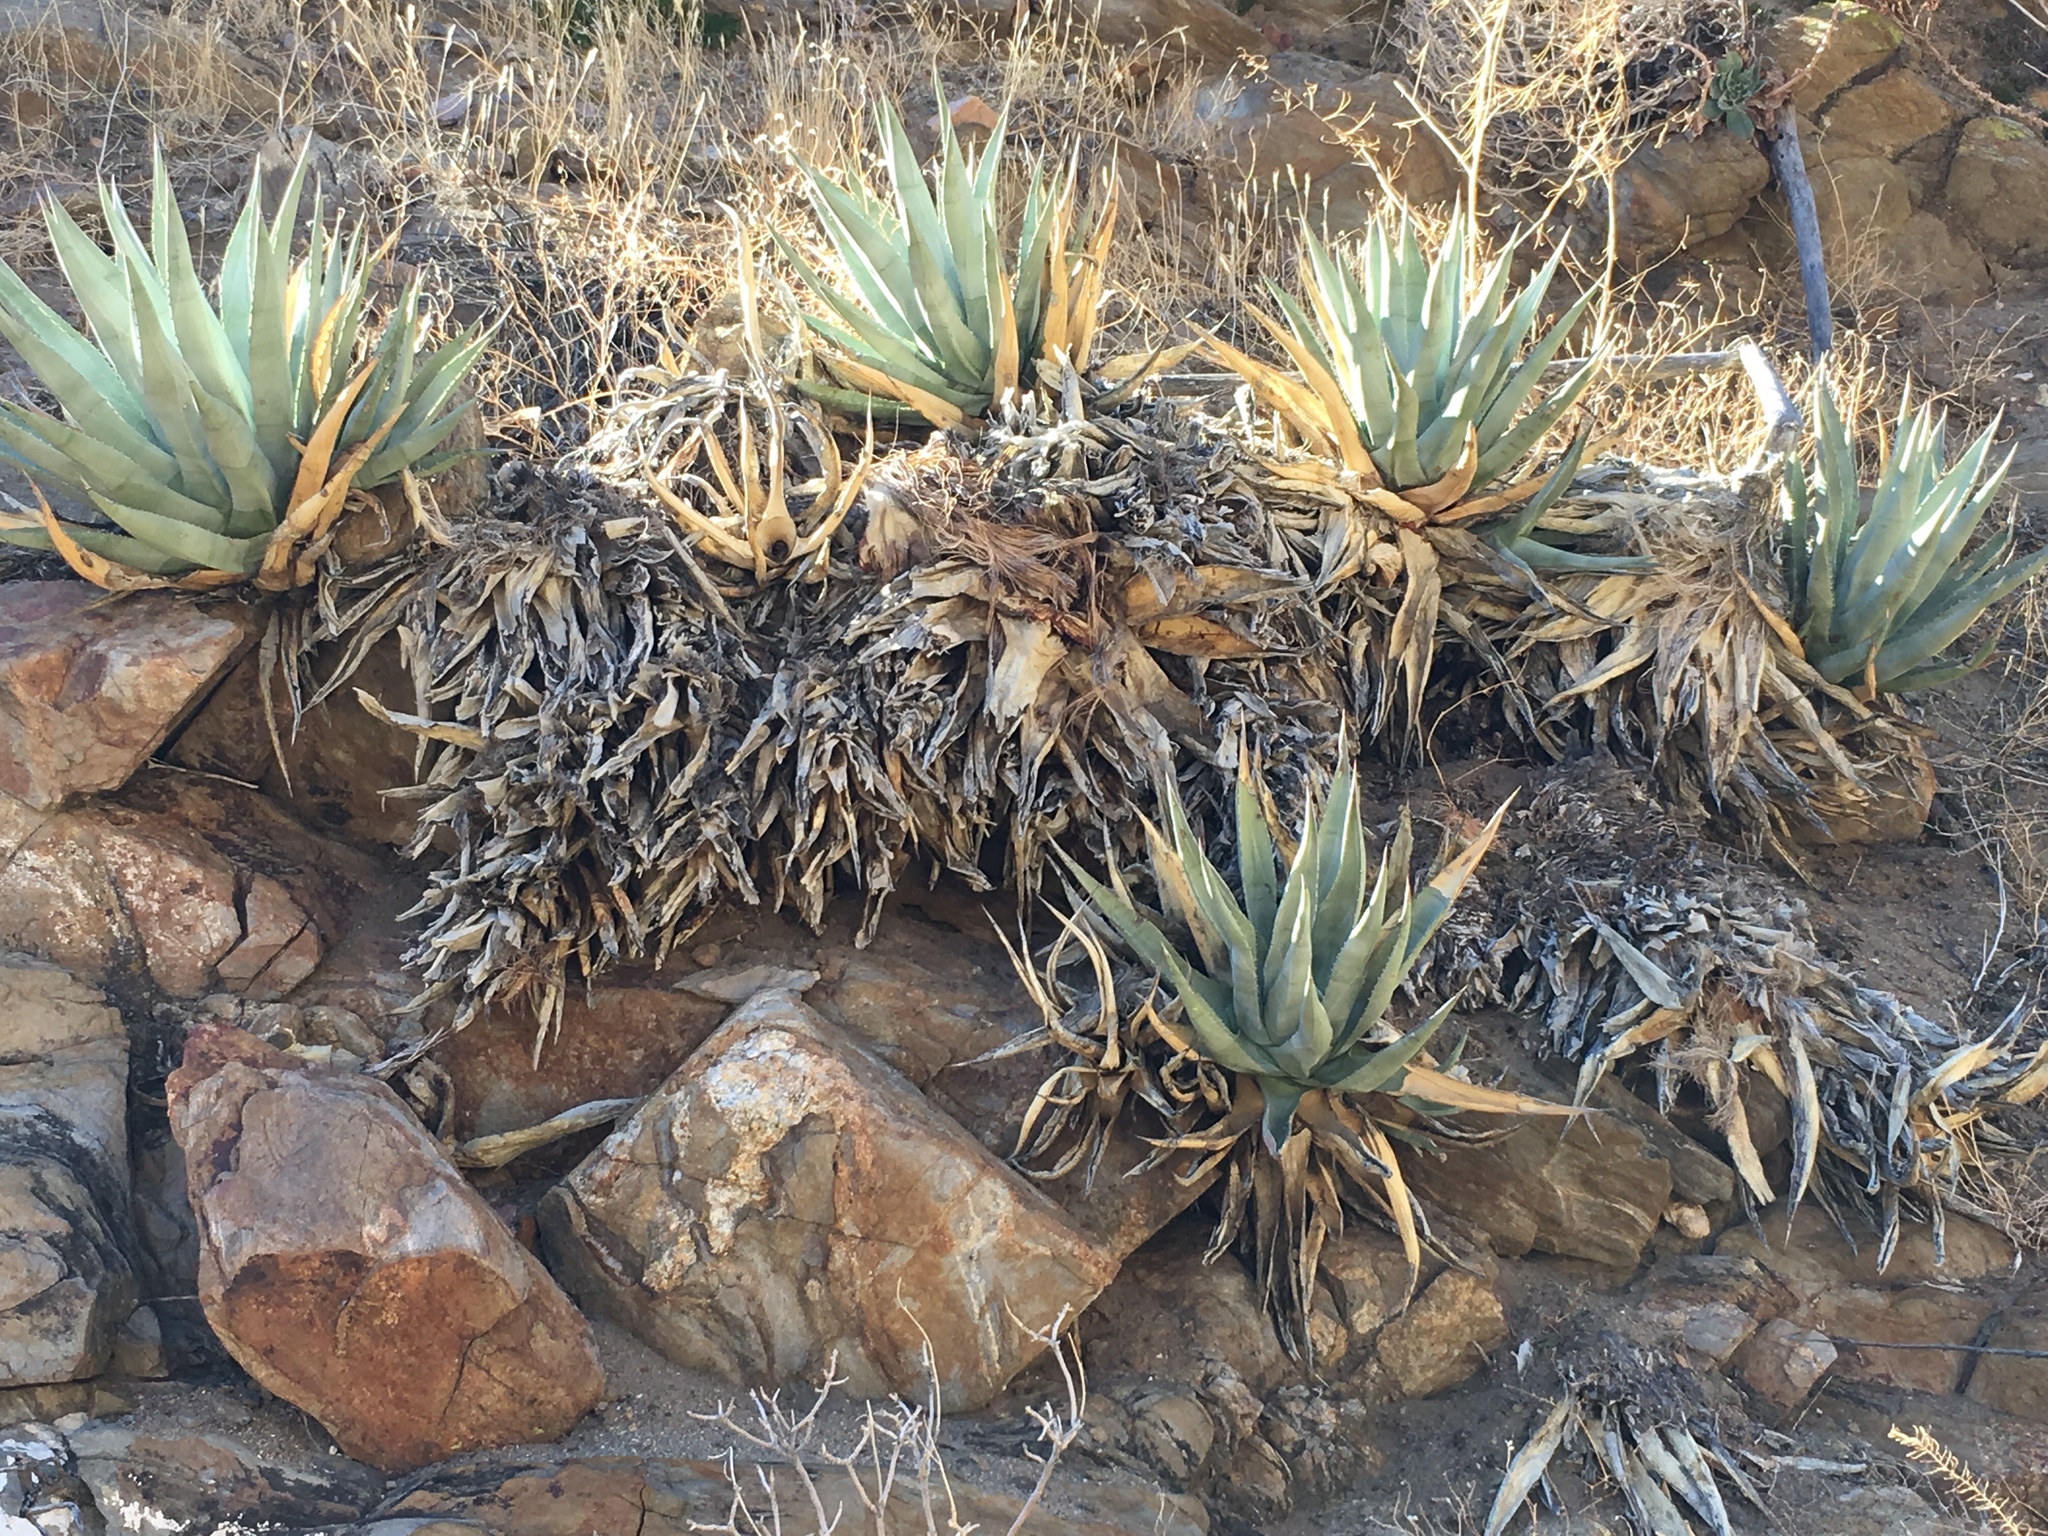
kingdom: Plantae
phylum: Tracheophyta
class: Liliopsida
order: Asparagales
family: Asparagaceae
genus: Agave
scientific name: Agave deserti
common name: Desert agave
